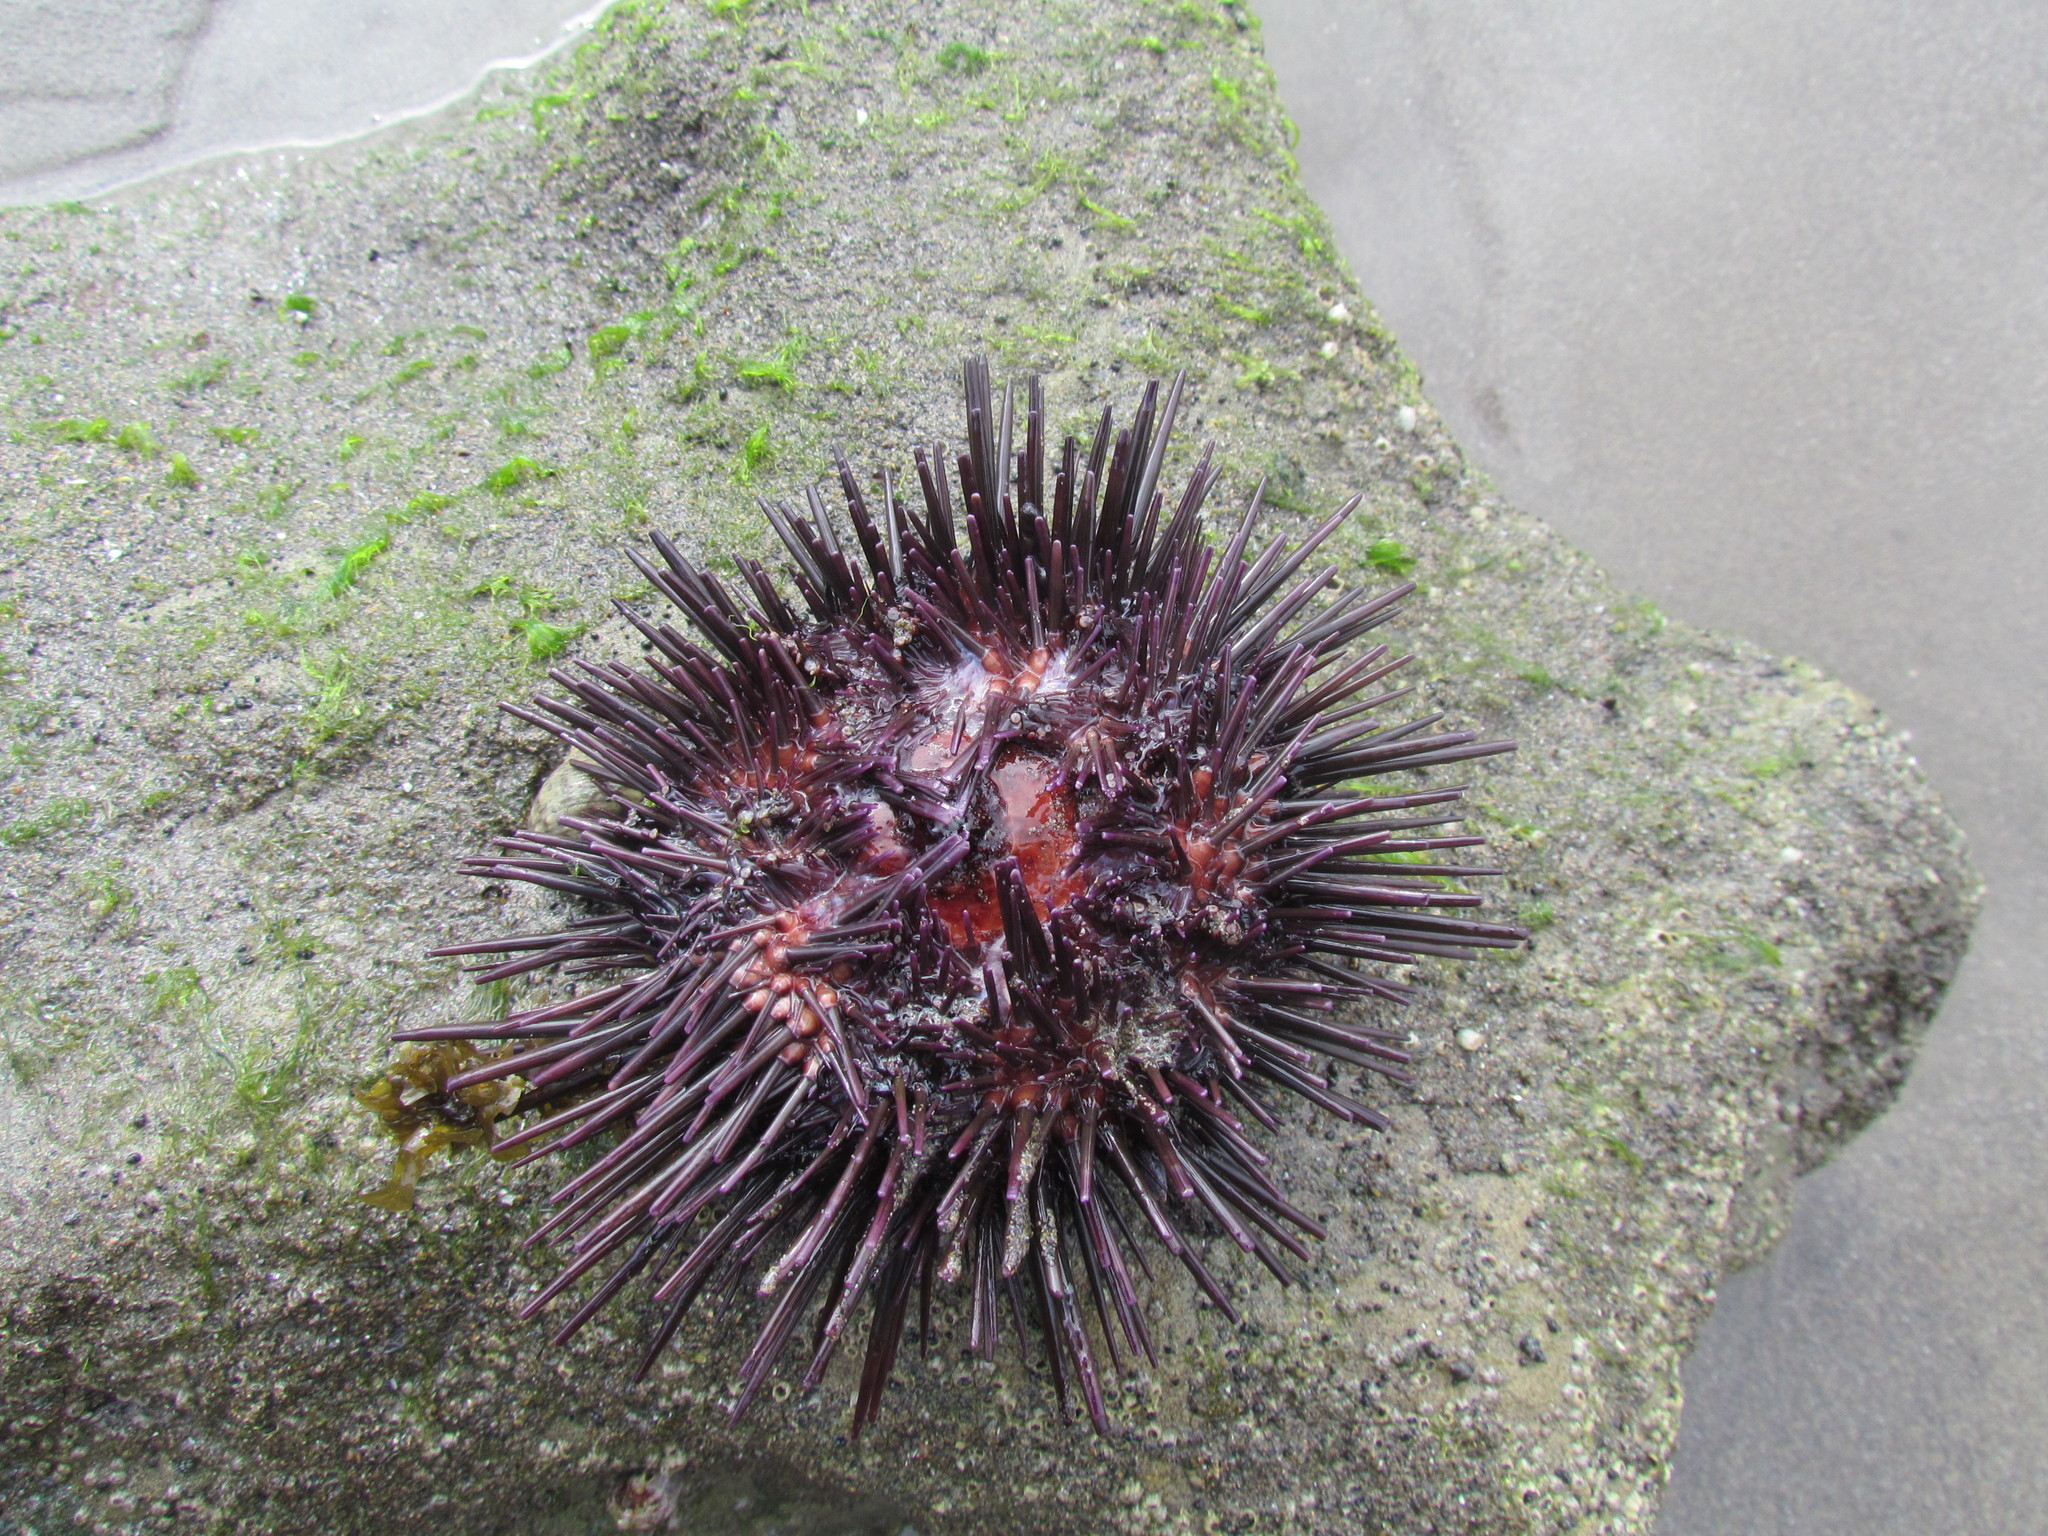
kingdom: Animalia
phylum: Echinodermata
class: Echinoidea
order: Camarodonta
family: Echinometridae
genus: Echinometra
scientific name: Echinometra lucunter
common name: Rock urchin
